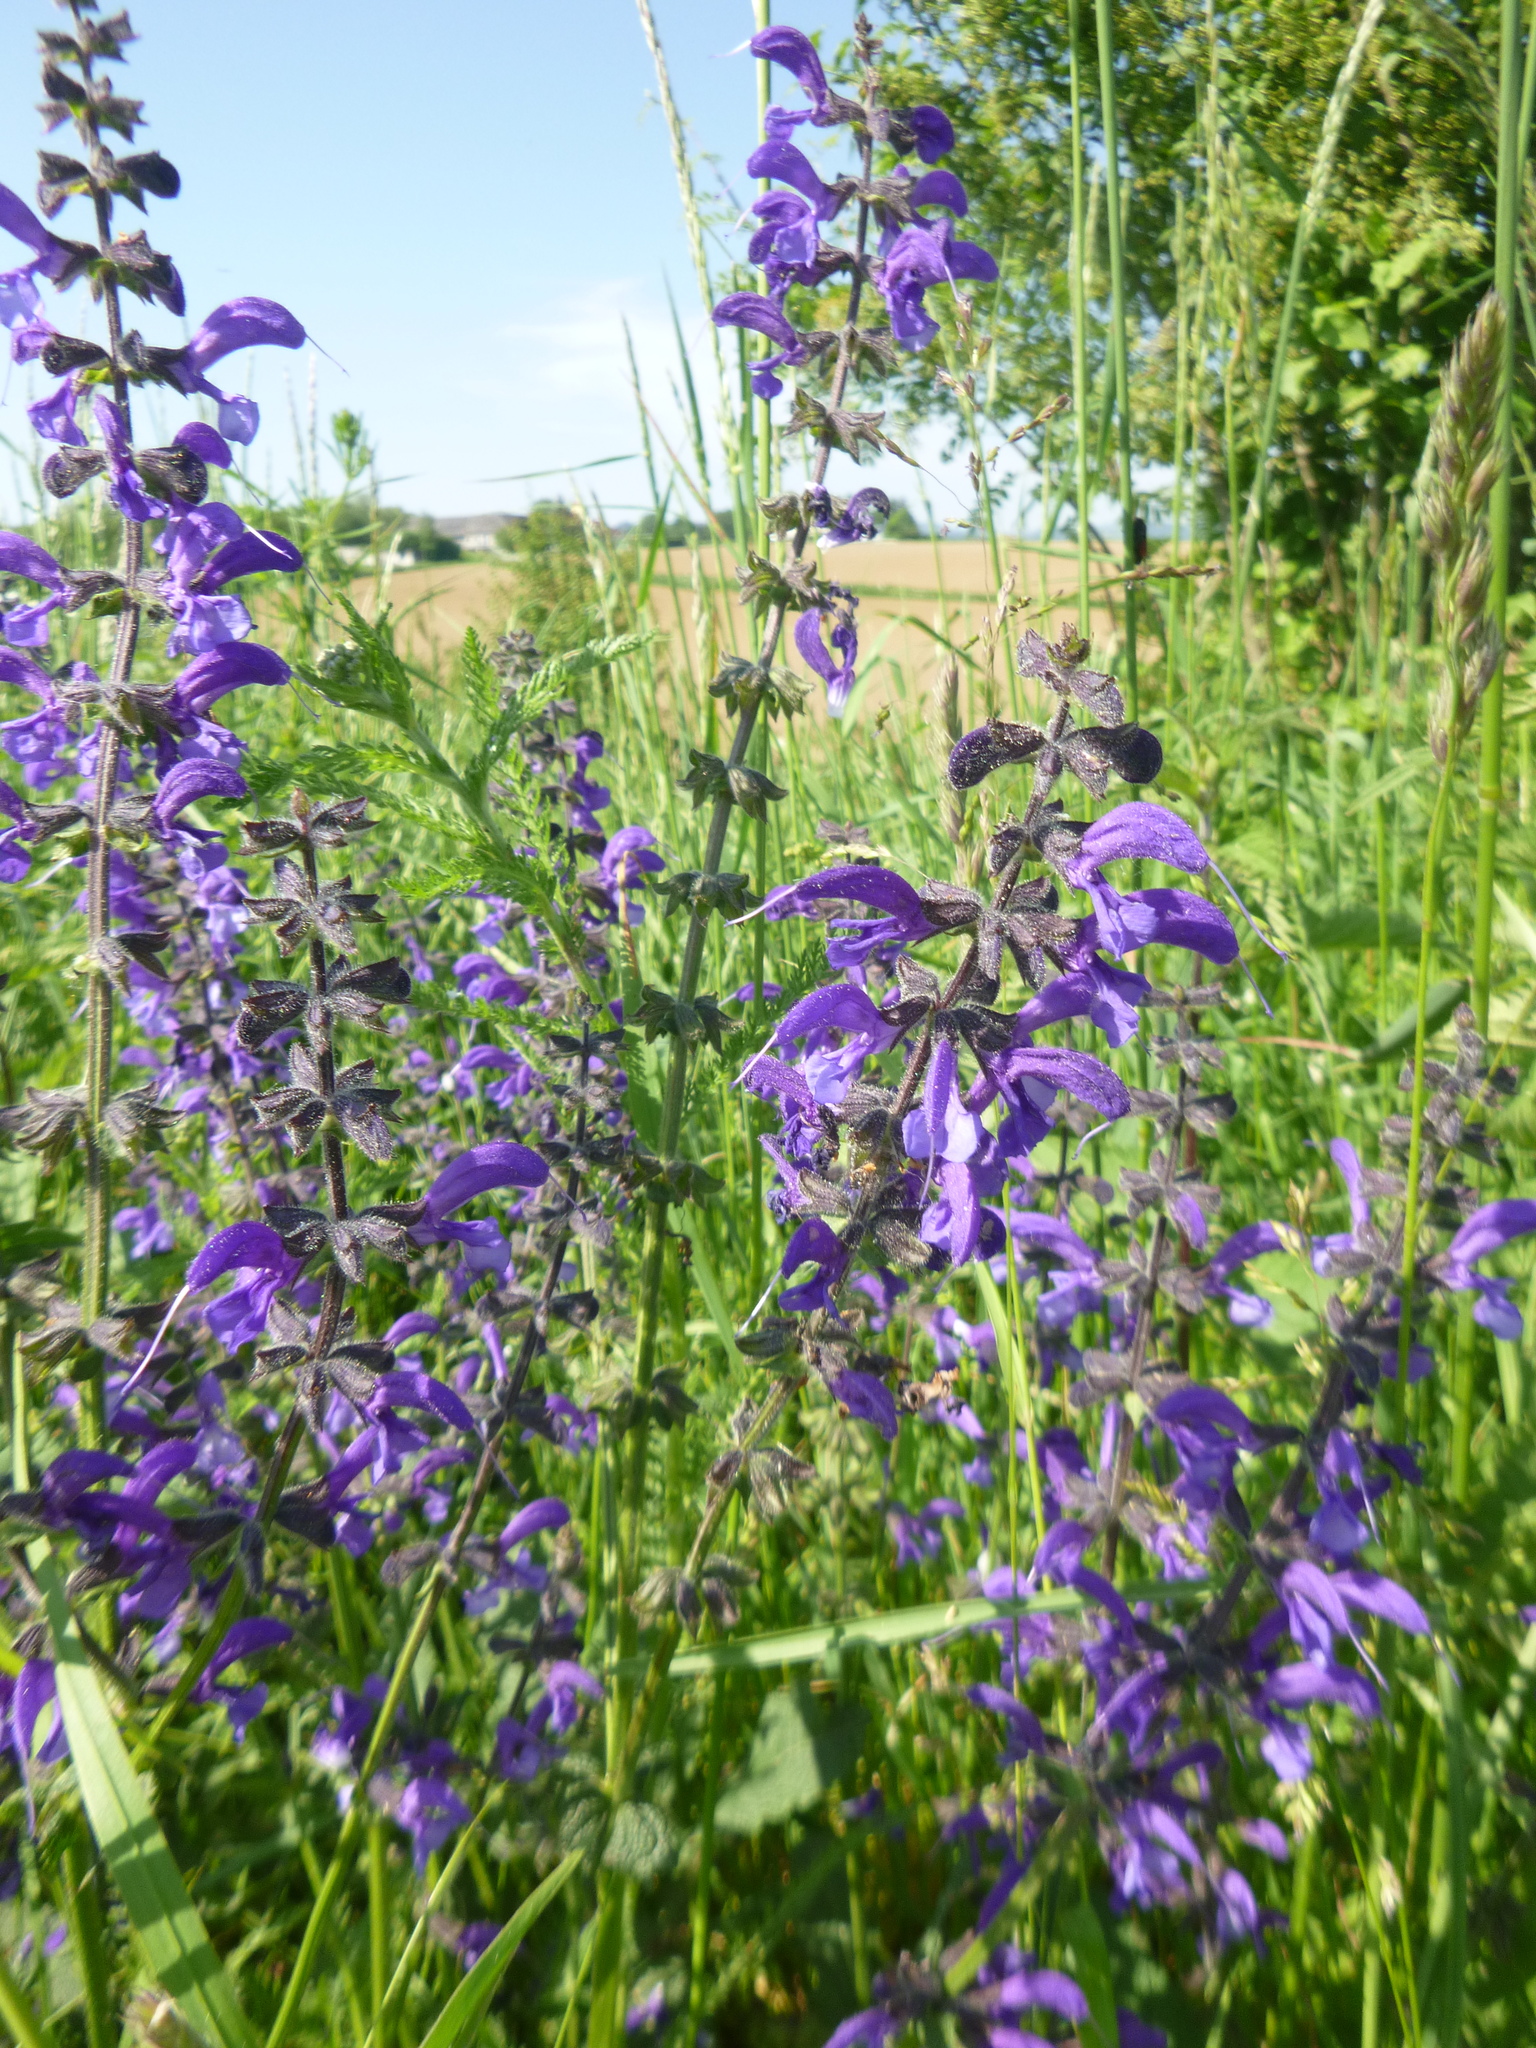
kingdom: Plantae
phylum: Tracheophyta
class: Magnoliopsida
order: Lamiales
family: Lamiaceae
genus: Salvia
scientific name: Salvia pratensis
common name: Meadow sage
